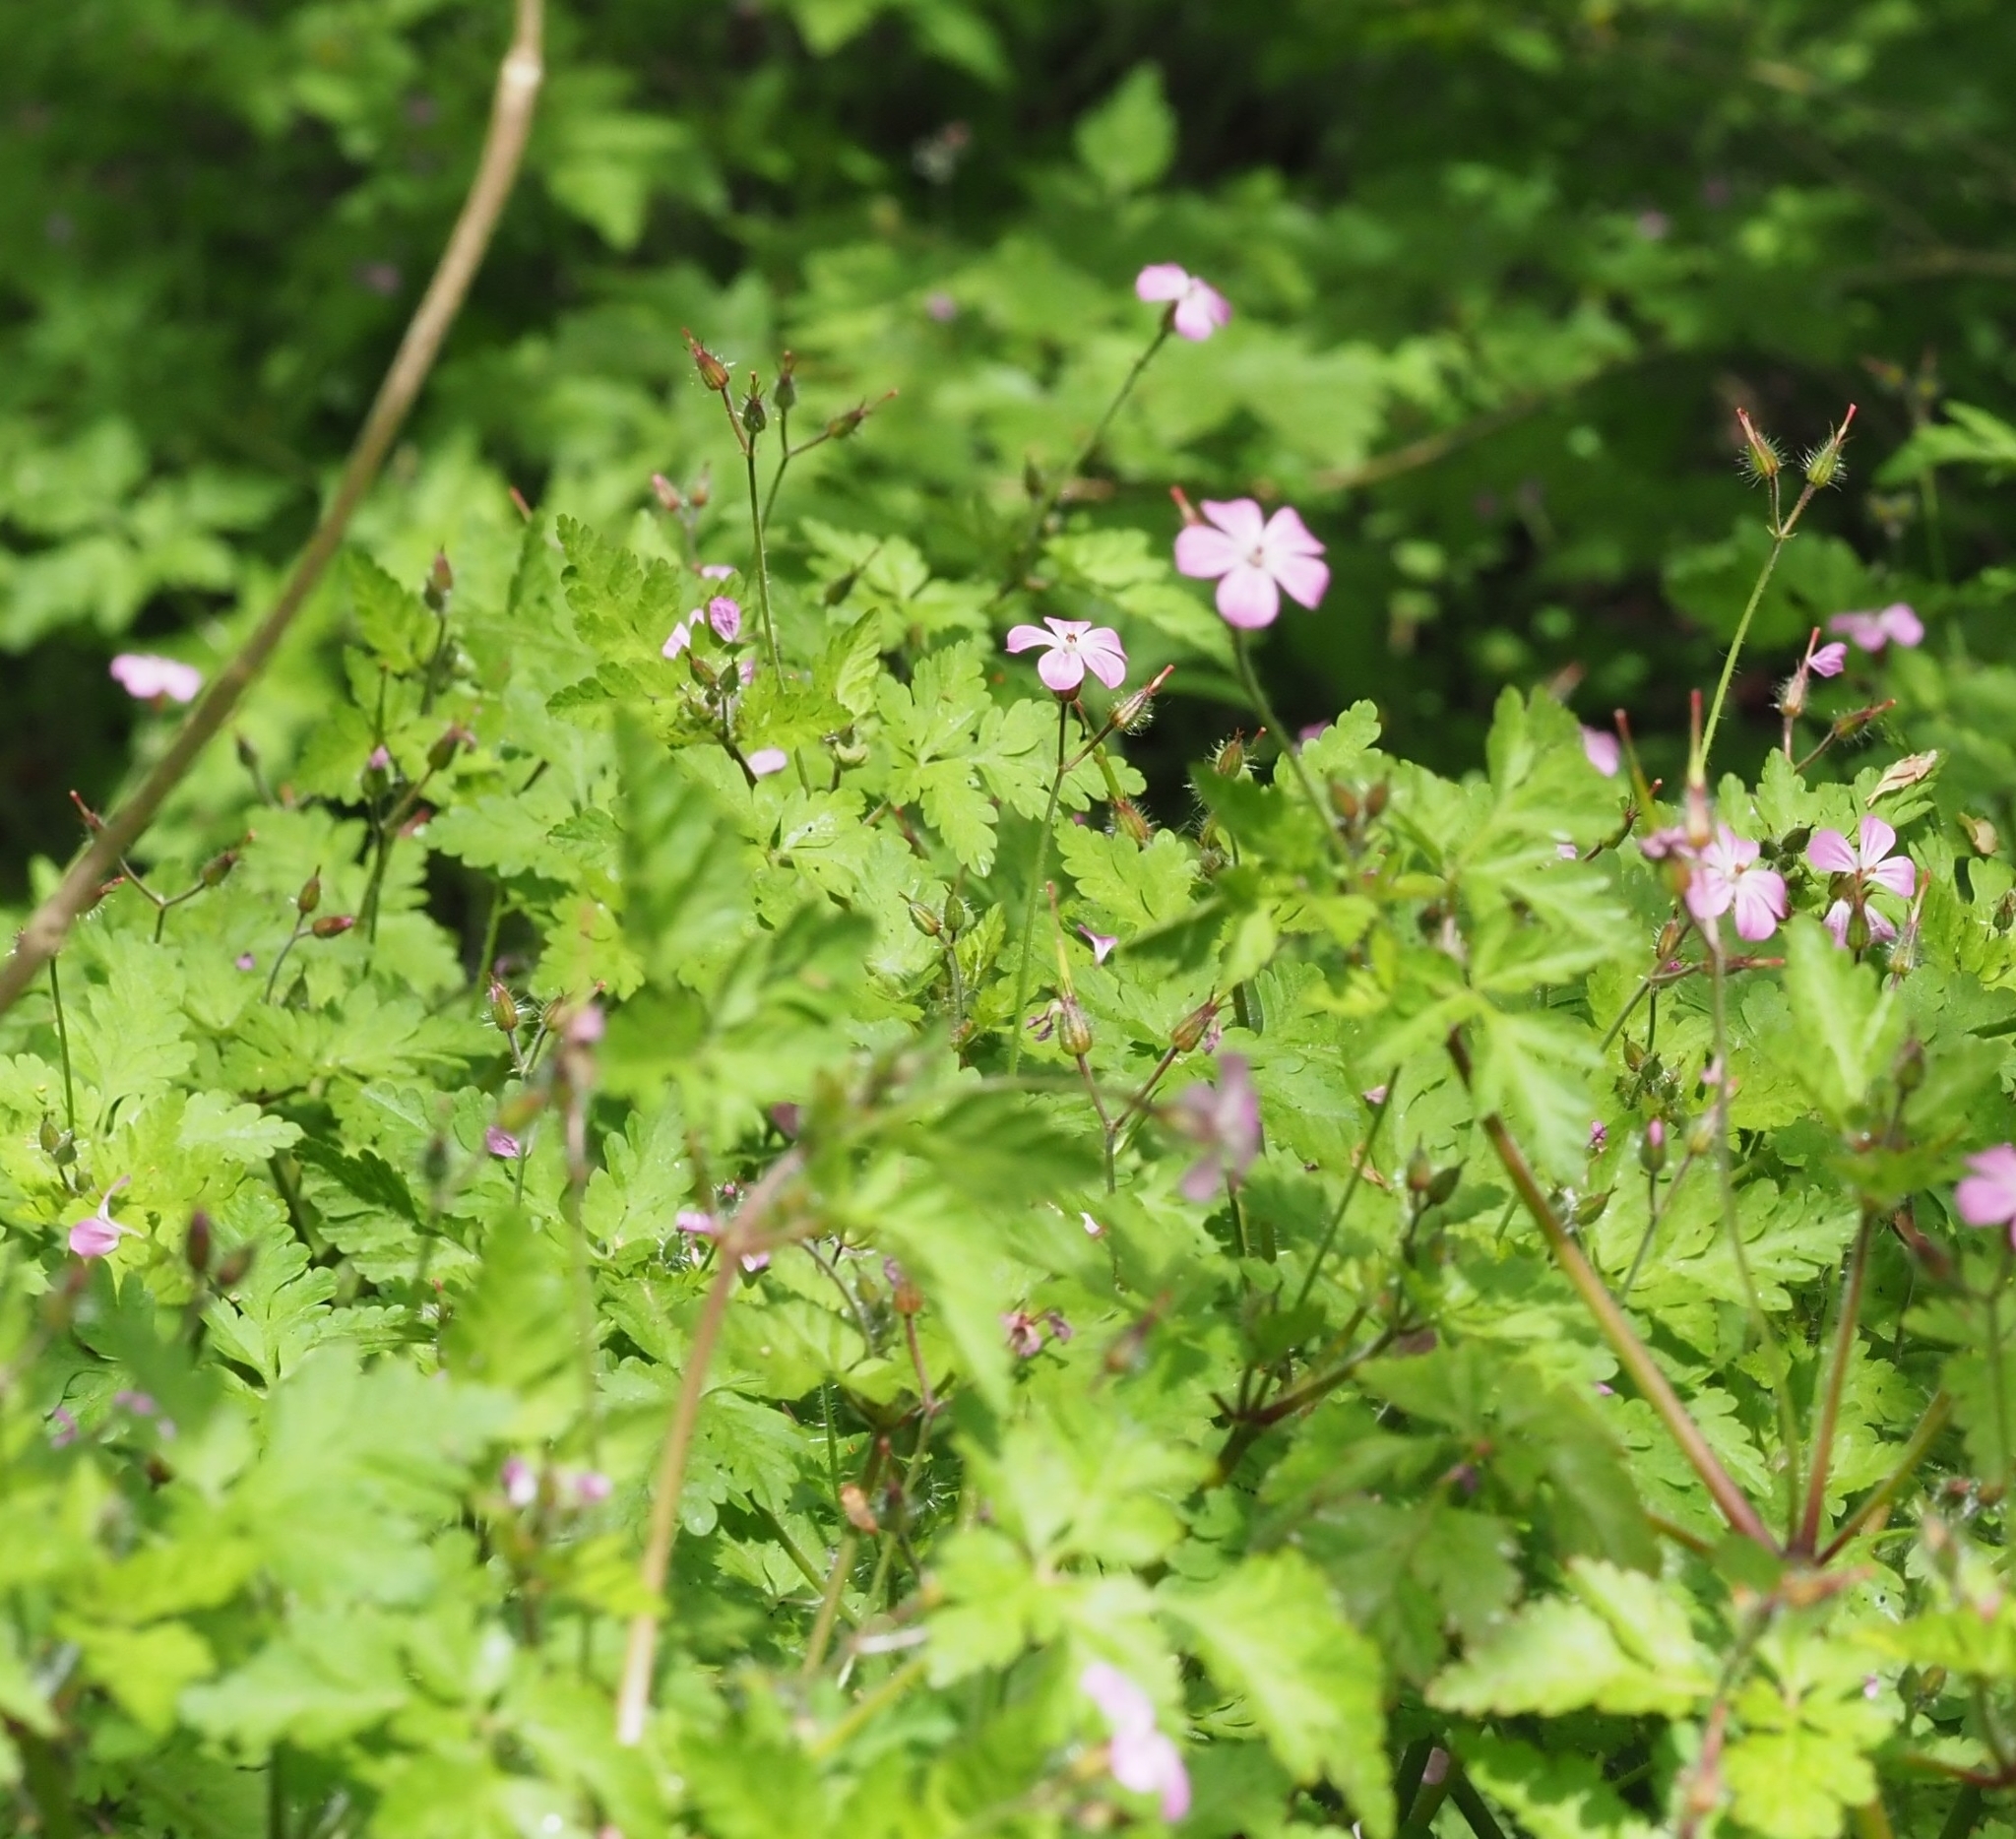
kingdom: Plantae
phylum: Tracheophyta
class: Magnoliopsida
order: Geraniales
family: Geraniaceae
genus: Geranium
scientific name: Geranium robertianum
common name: Herb-robert
